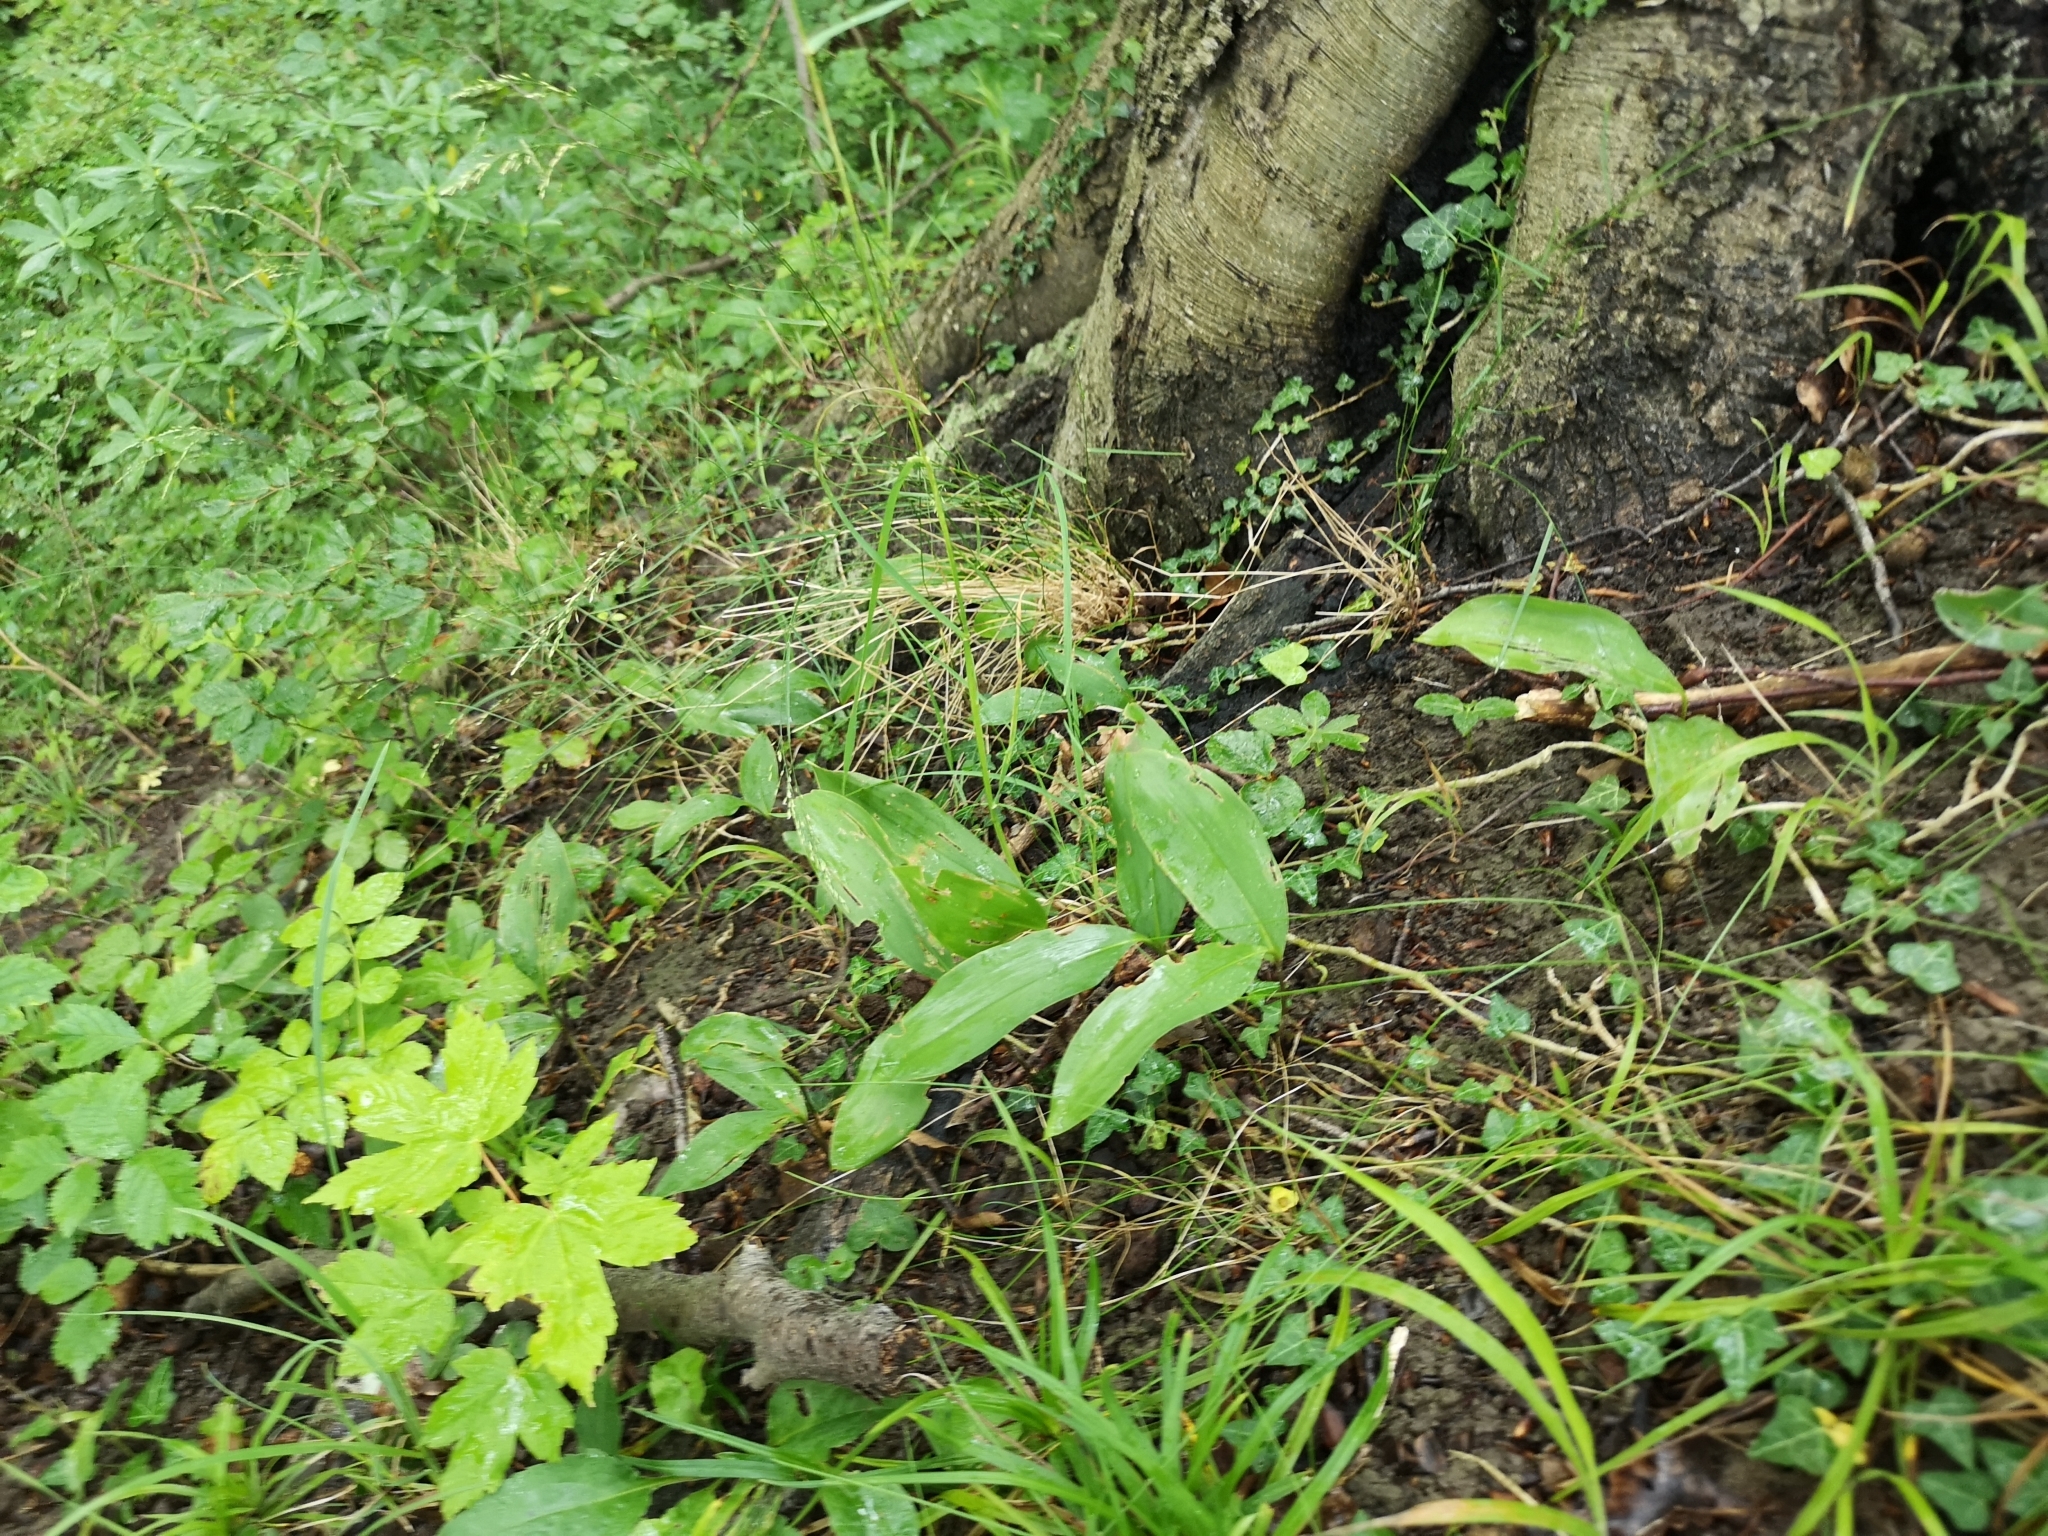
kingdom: Plantae
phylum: Tracheophyta
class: Liliopsida
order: Asparagales
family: Asparagaceae
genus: Convallaria
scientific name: Convallaria majalis
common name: Lily-of-the-valley
